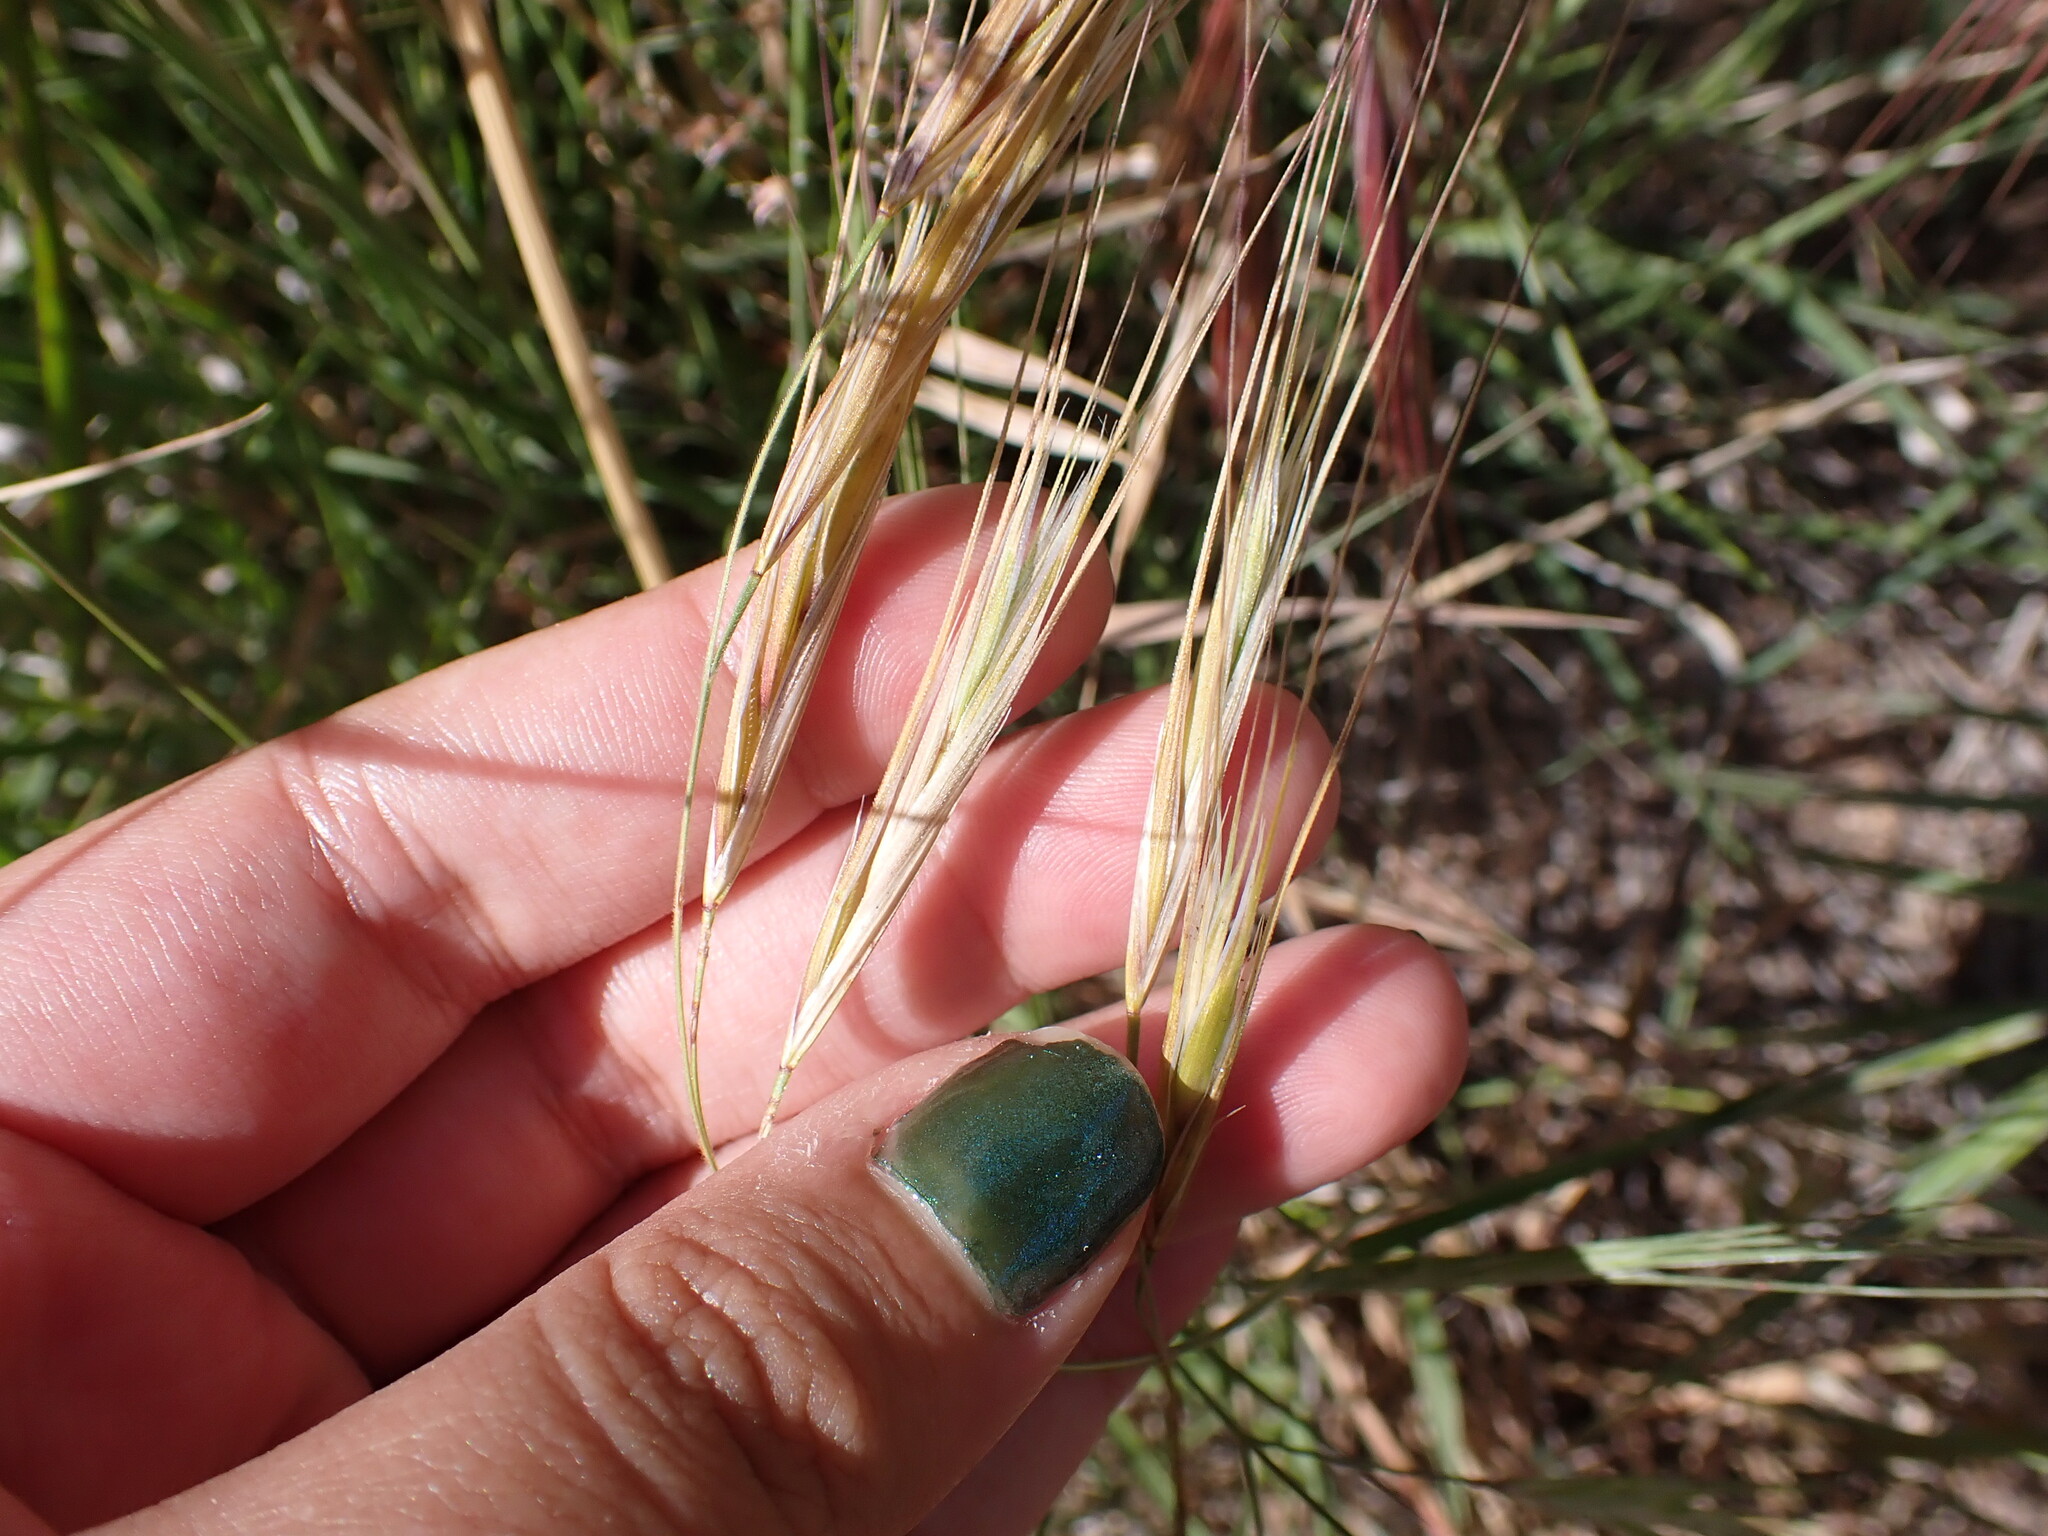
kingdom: Plantae
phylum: Tracheophyta
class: Liliopsida
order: Poales
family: Poaceae
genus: Bromus
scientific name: Bromus diandrus
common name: Ripgut brome
